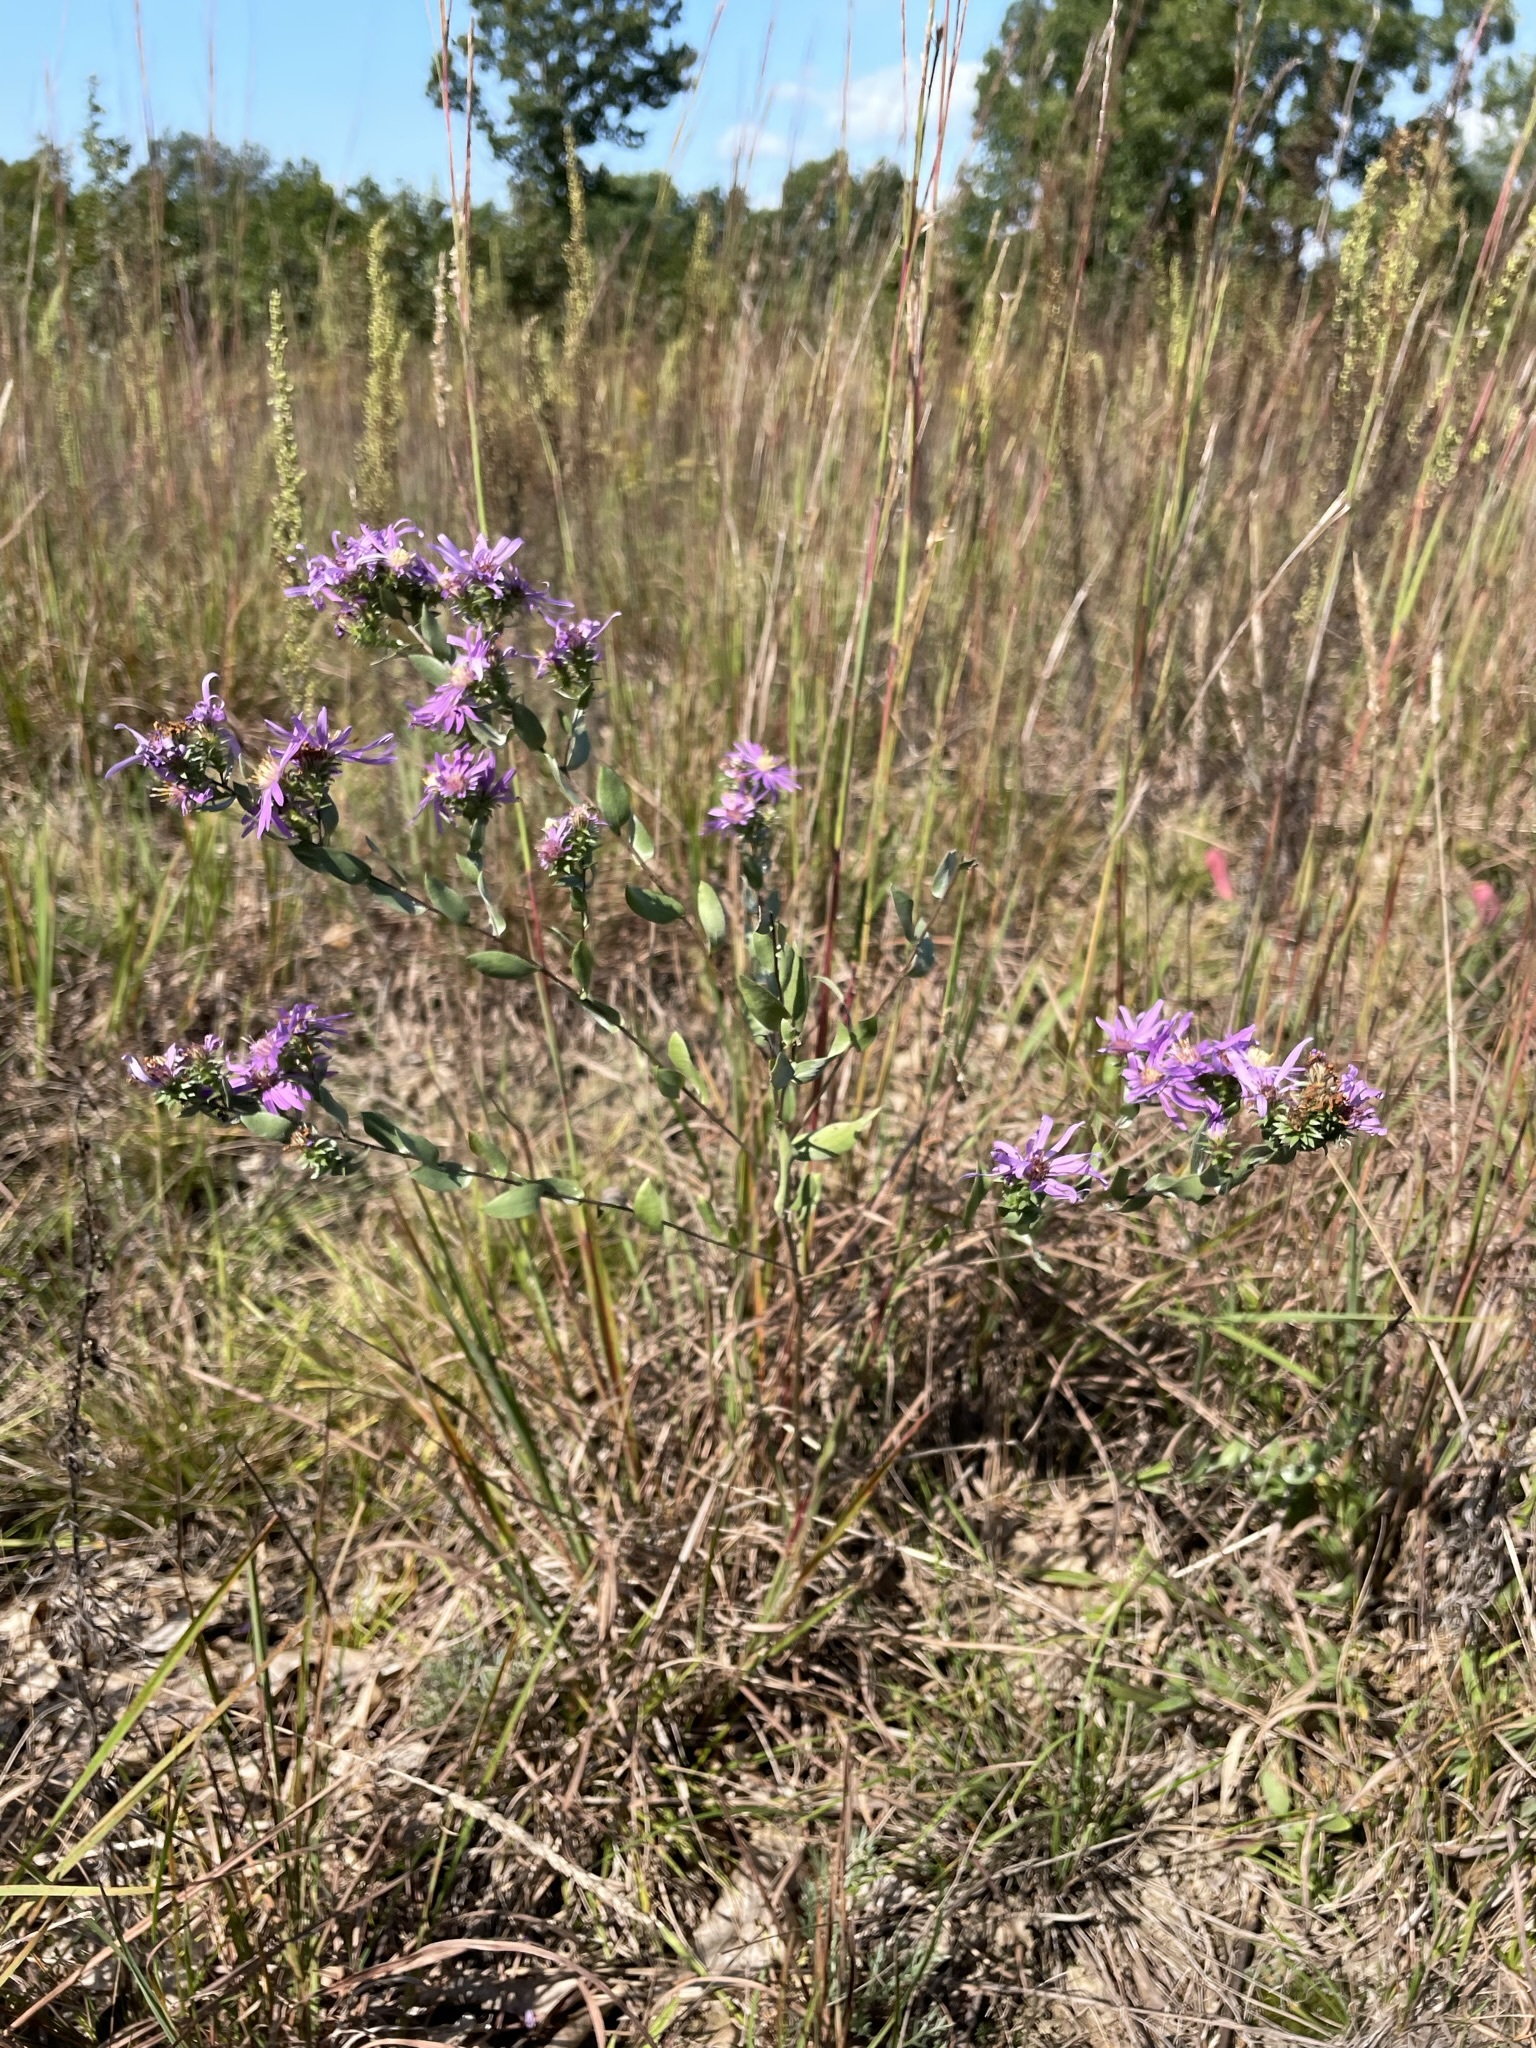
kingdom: Plantae
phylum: Tracheophyta
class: Magnoliopsida
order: Asterales
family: Asteraceae
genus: Symphyotrichum
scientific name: Symphyotrichum sericeum
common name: Silky aster
